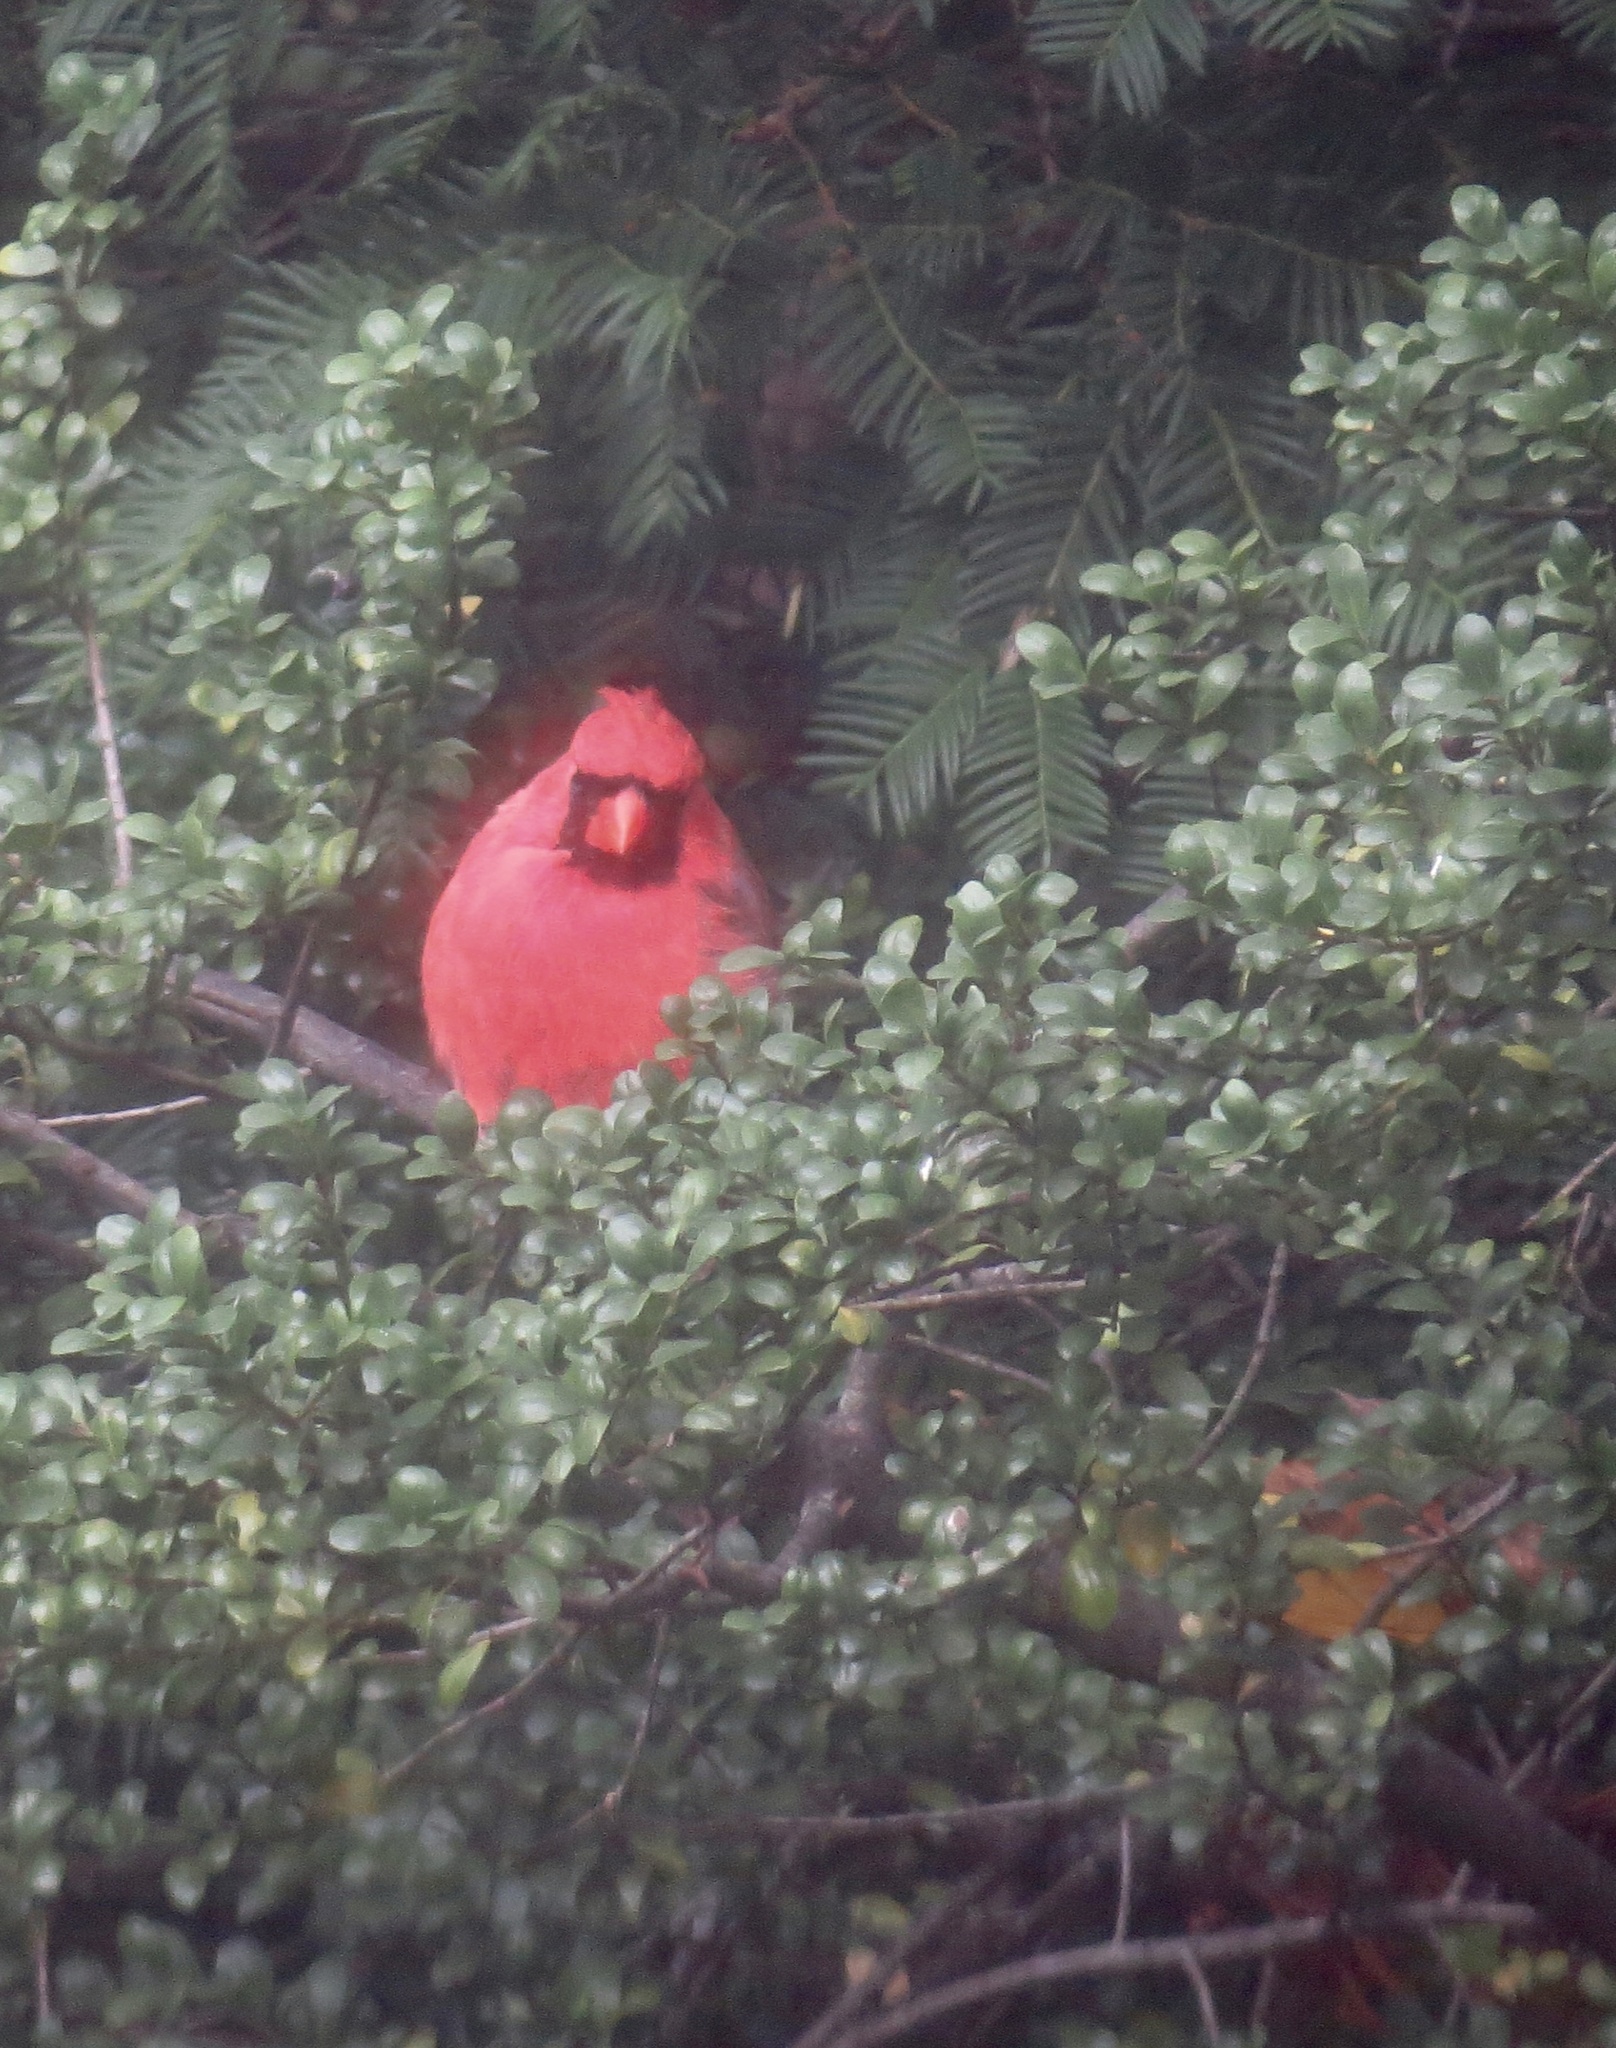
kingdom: Animalia
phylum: Chordata
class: Aves
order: Passeriformes
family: Cardinalidae
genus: Cardinalis
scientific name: Cardinalis cardinalis
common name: Northern cardinal
